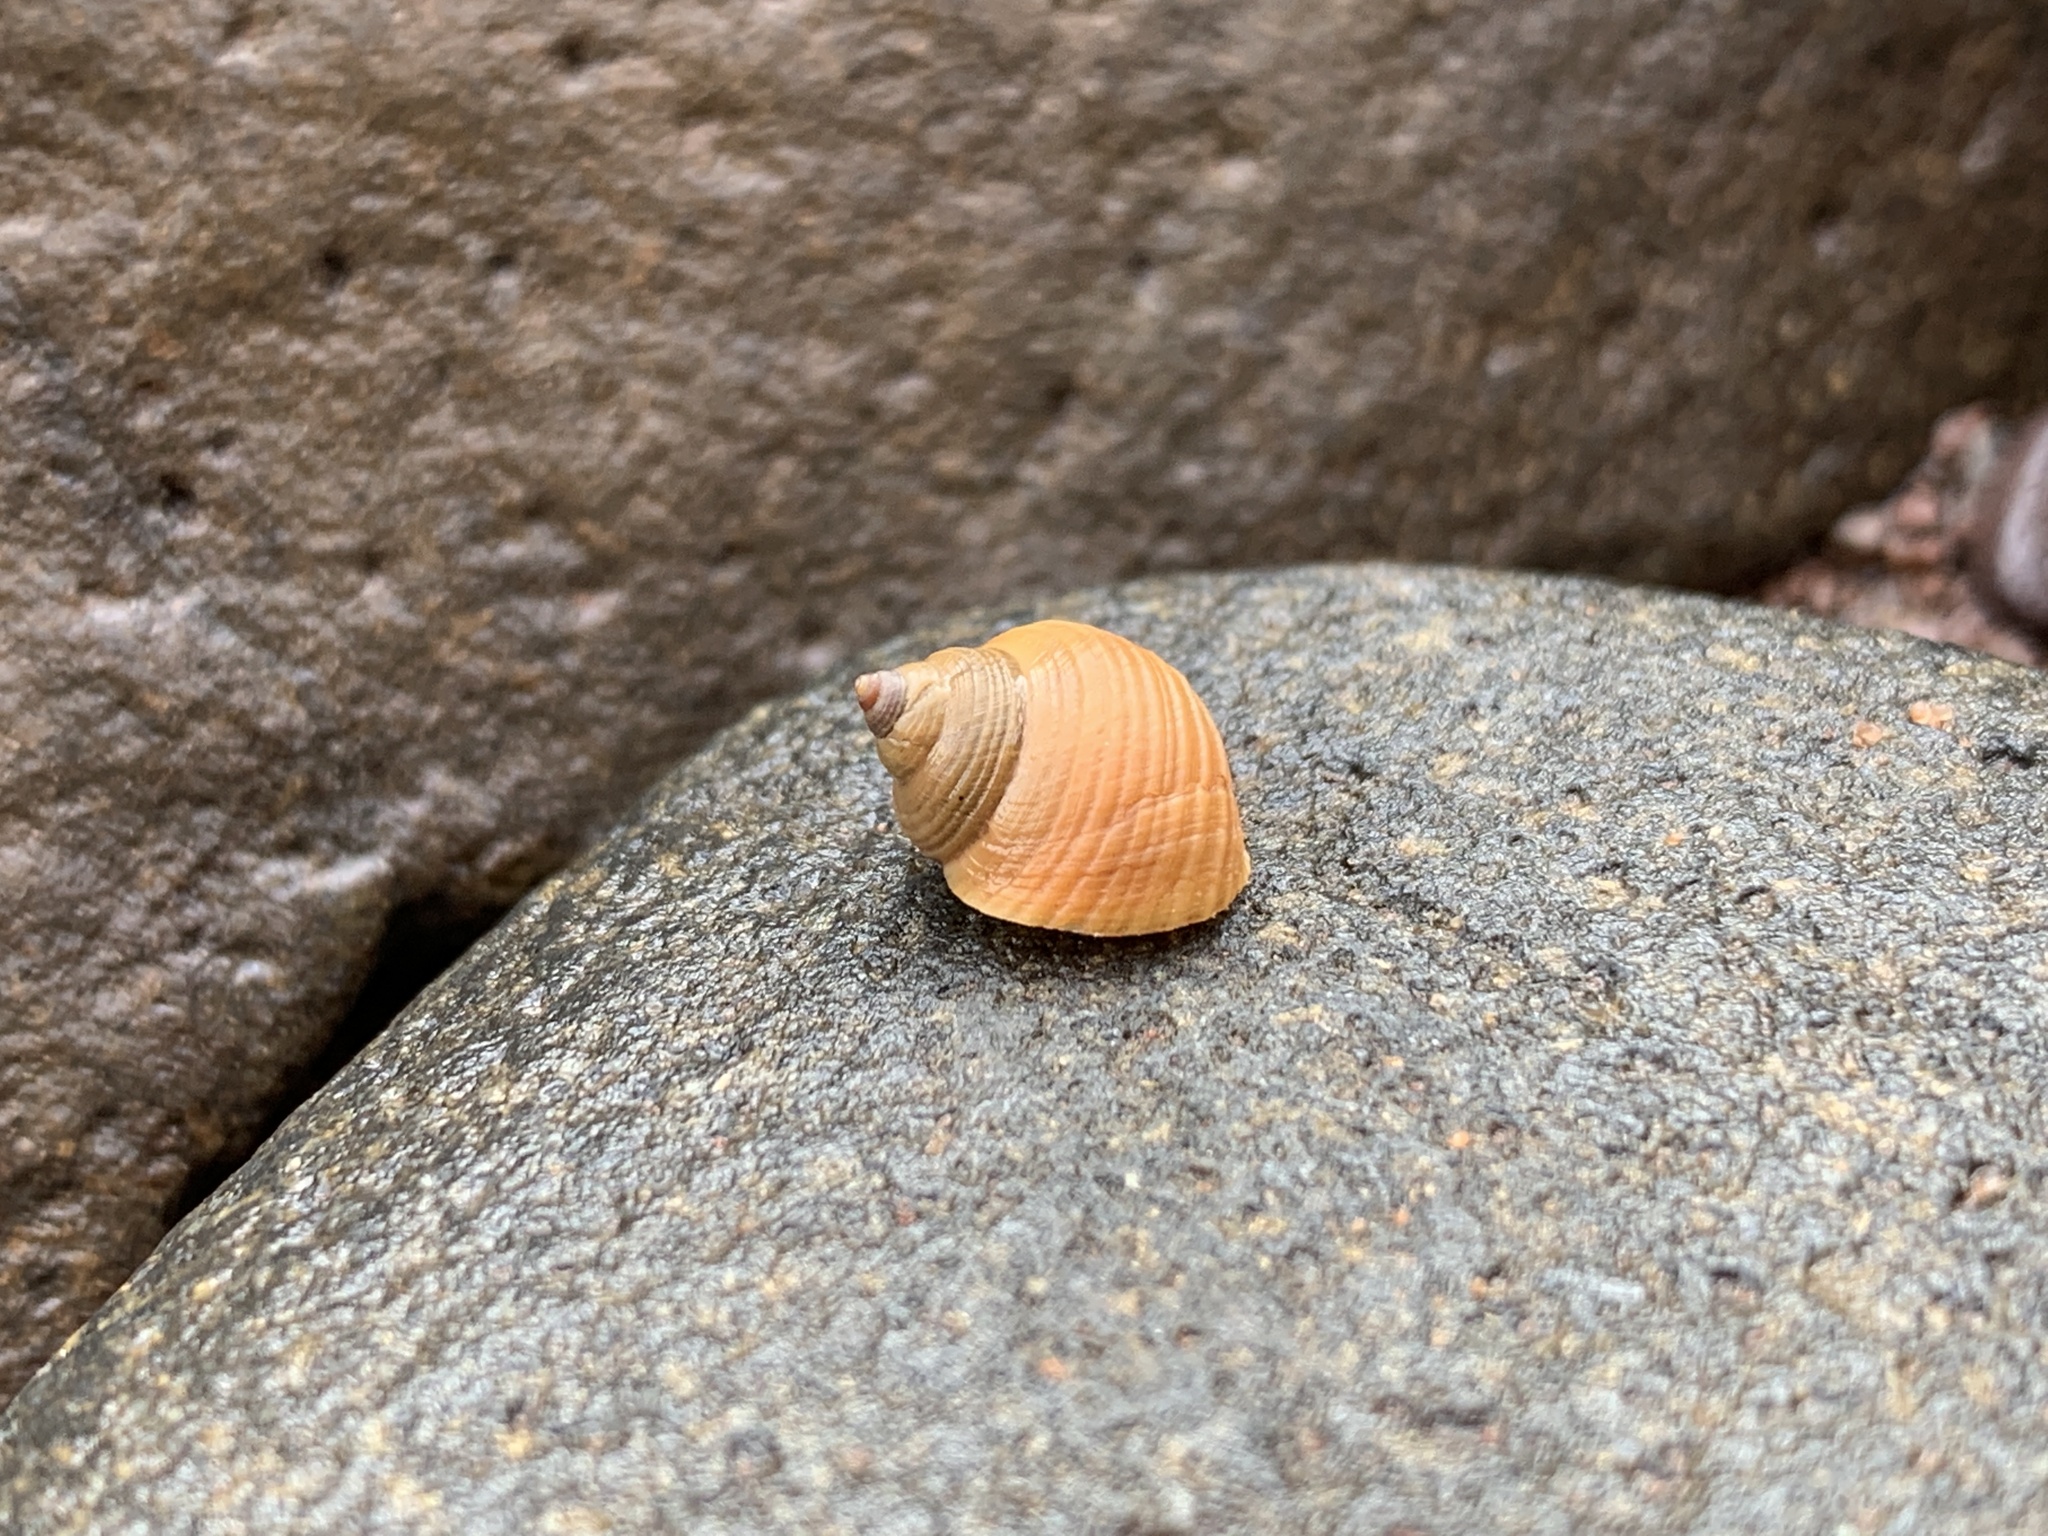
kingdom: Animalia
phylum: Mollusca
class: Gastropoda
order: Littorinimorpha
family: Littorinidae
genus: Littorina
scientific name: Littorina saxatilis
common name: Black-lined periwinkle
